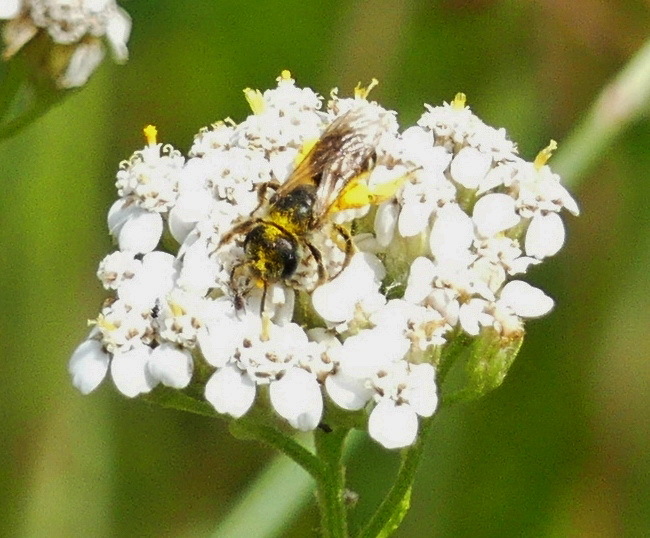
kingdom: Animalia
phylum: Arthropoda
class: Insecta
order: Hymenoptera
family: Halictidae
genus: Halictus
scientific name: Halictus ligatus
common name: Ligated furrow bee
